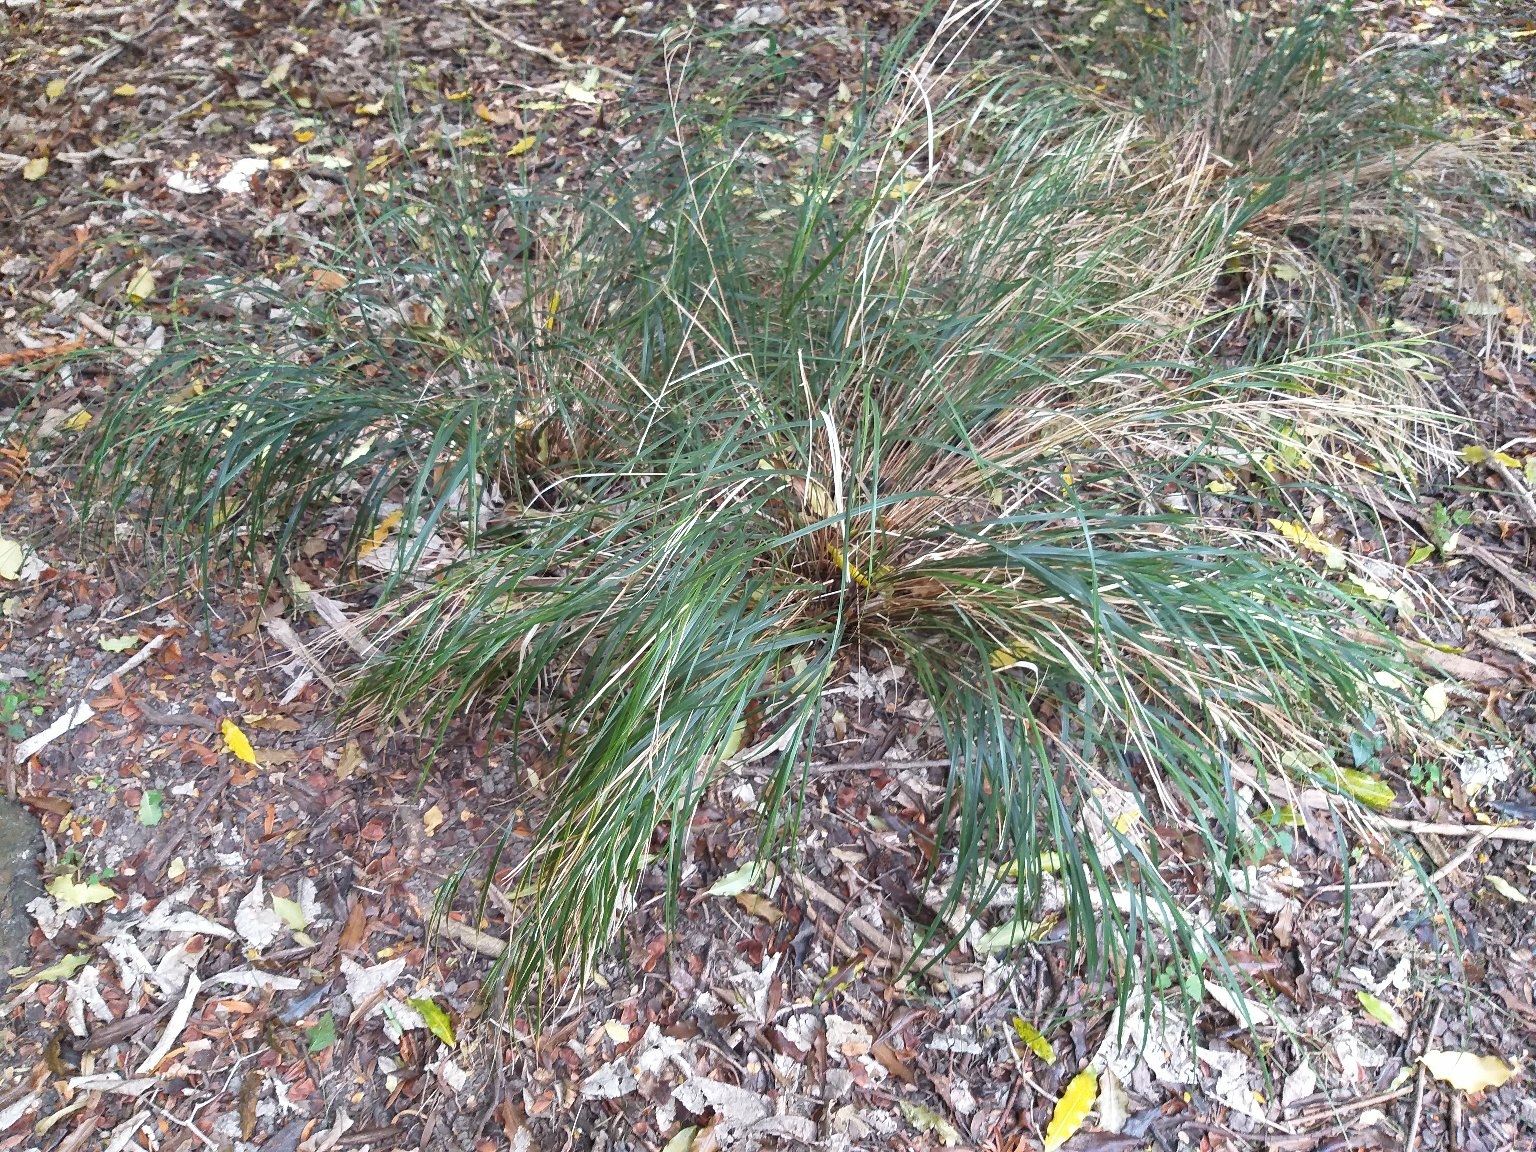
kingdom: Plantae
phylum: Tracheophyta
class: Liliopsida
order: Poales
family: Poaceae
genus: Anemanthele
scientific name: Anemanthele lessoniana
